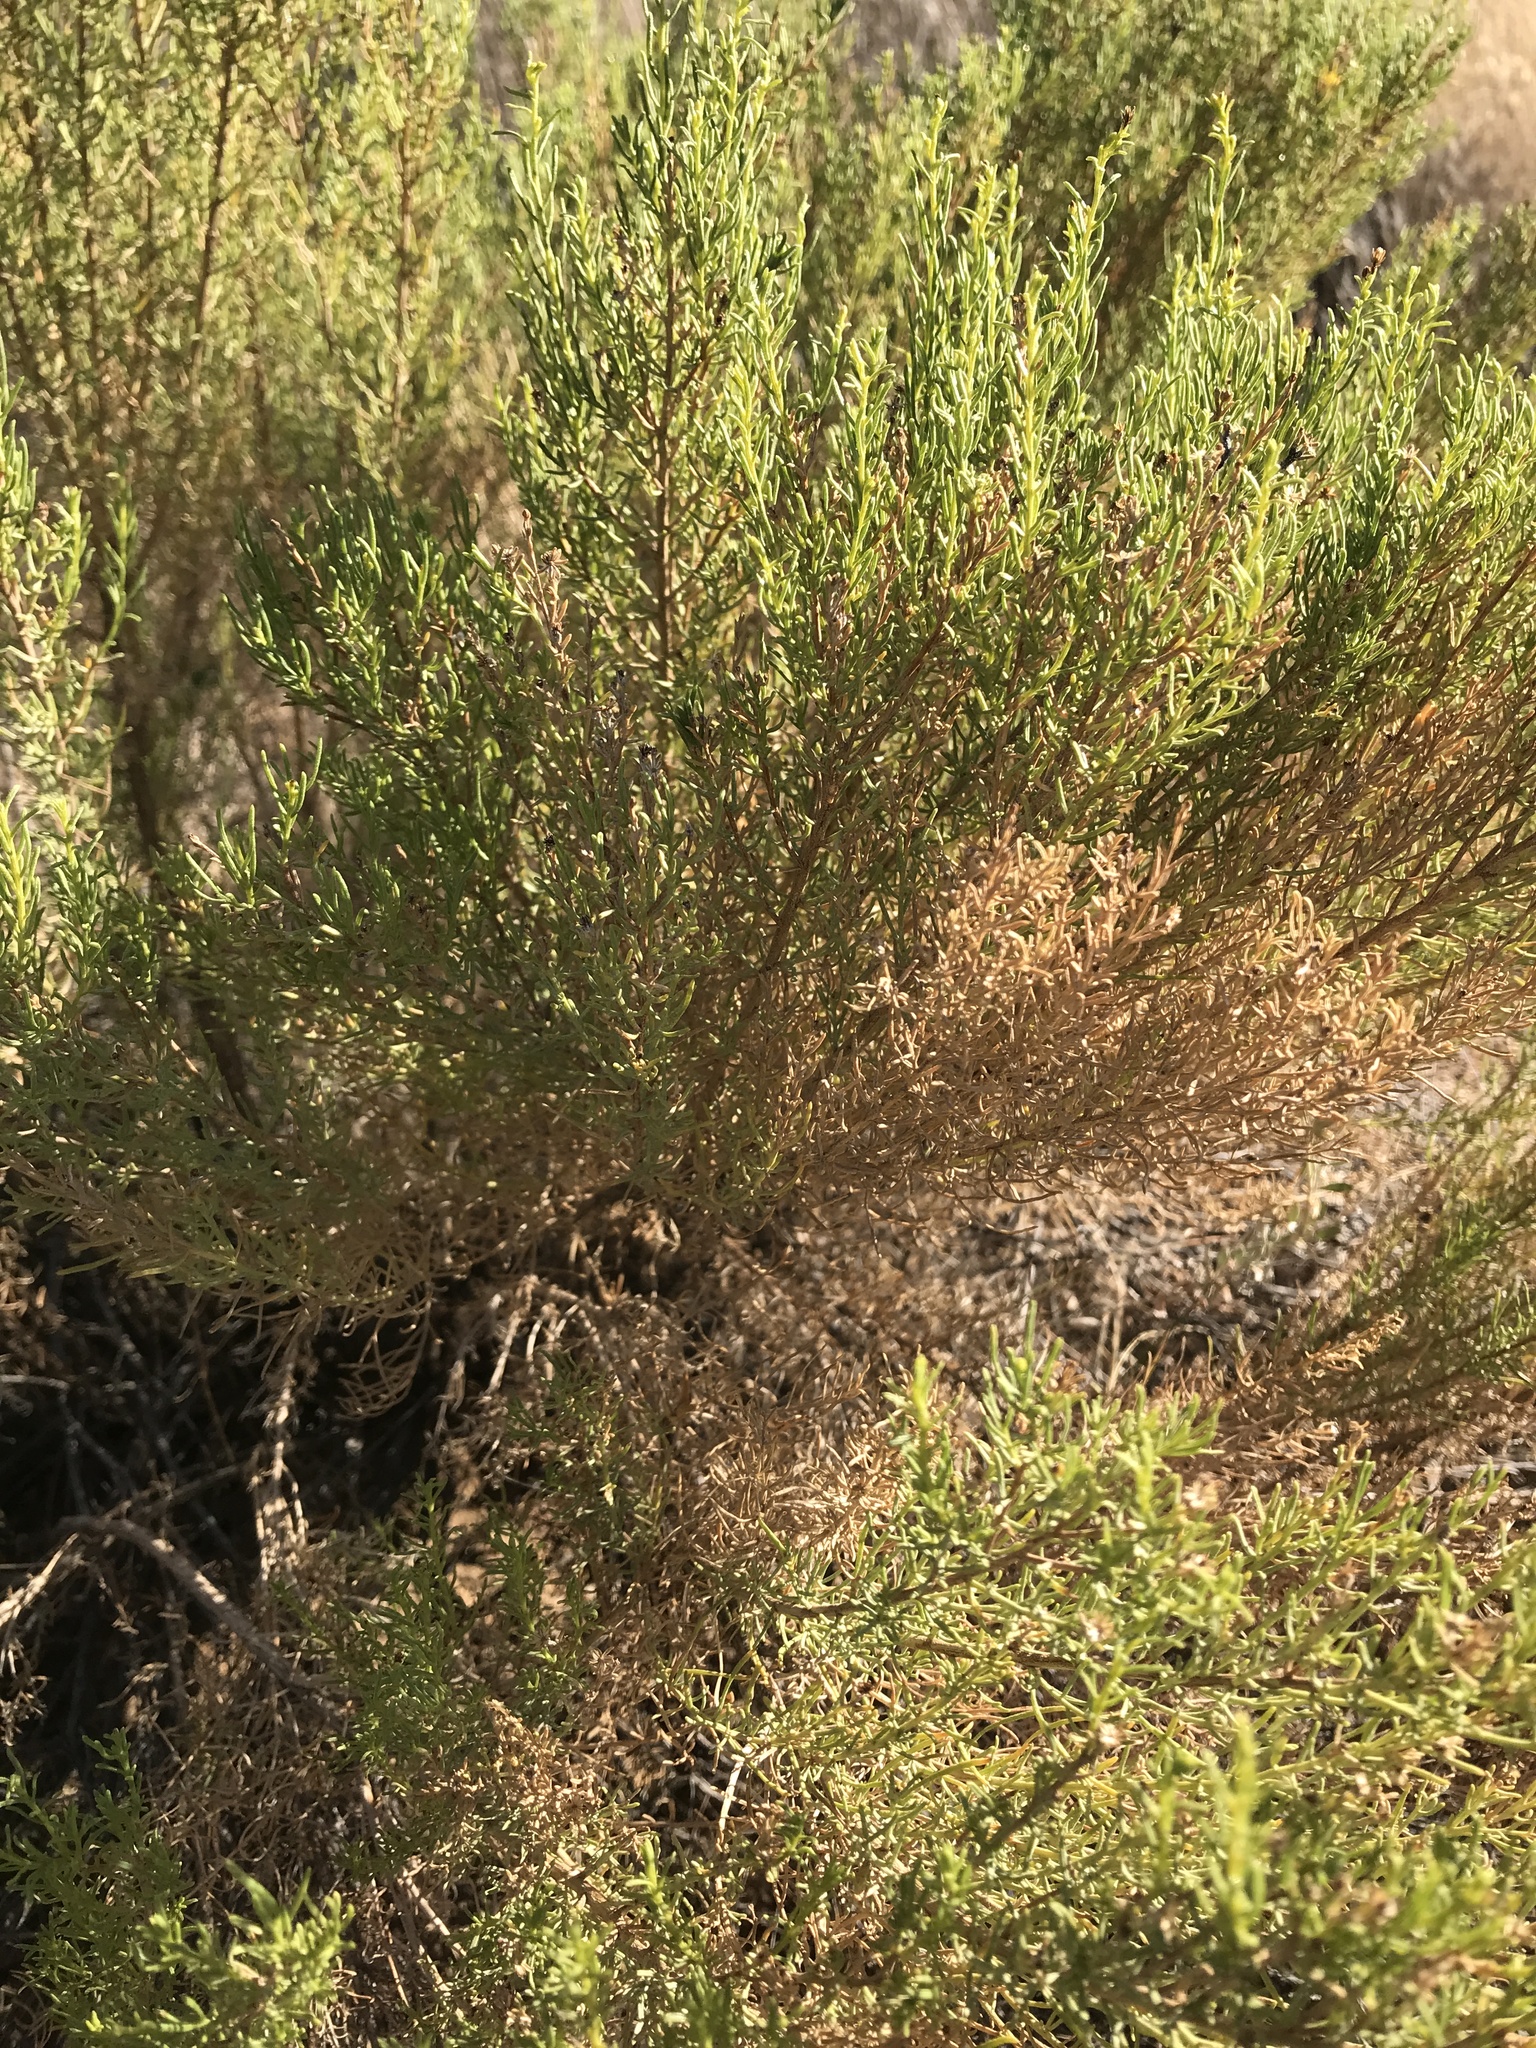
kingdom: Plantae
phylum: Tracheophyta
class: Magnoliopsida
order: Asterales
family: Asteraceae
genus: Baccharis
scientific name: Baccharis sarothroides
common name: Desert-broom
